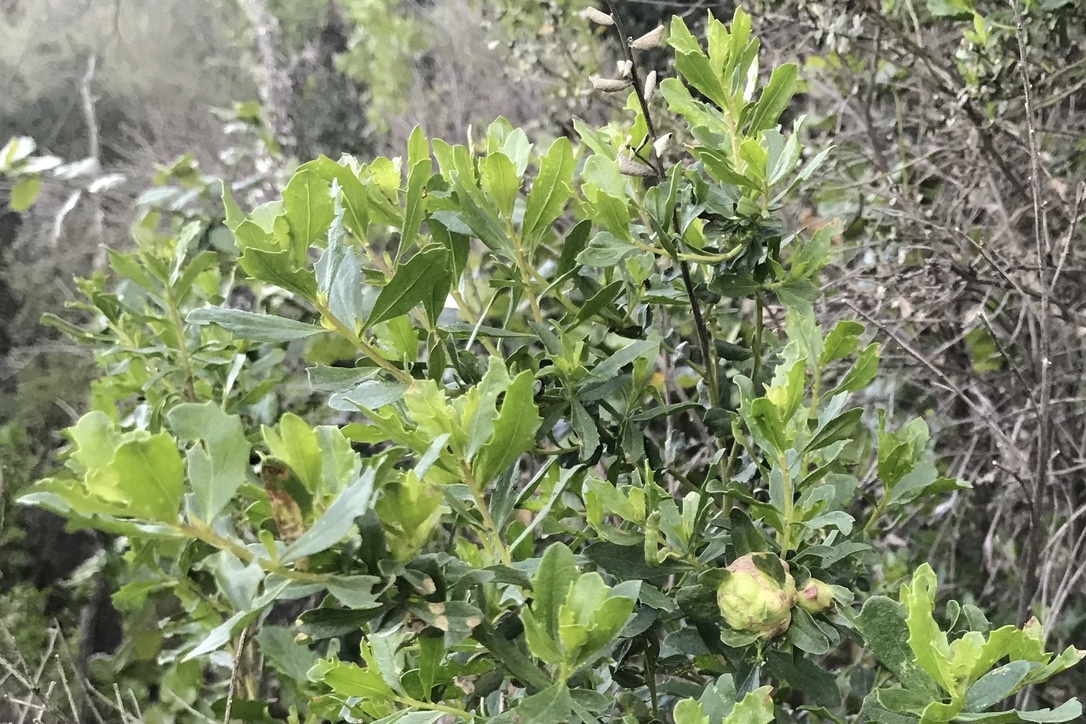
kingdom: Animalia
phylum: Arthropoda
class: Insecta
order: Diptera
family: Cecidomyiidae
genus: Rhopalomyia
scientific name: Rhopalomyia californica
